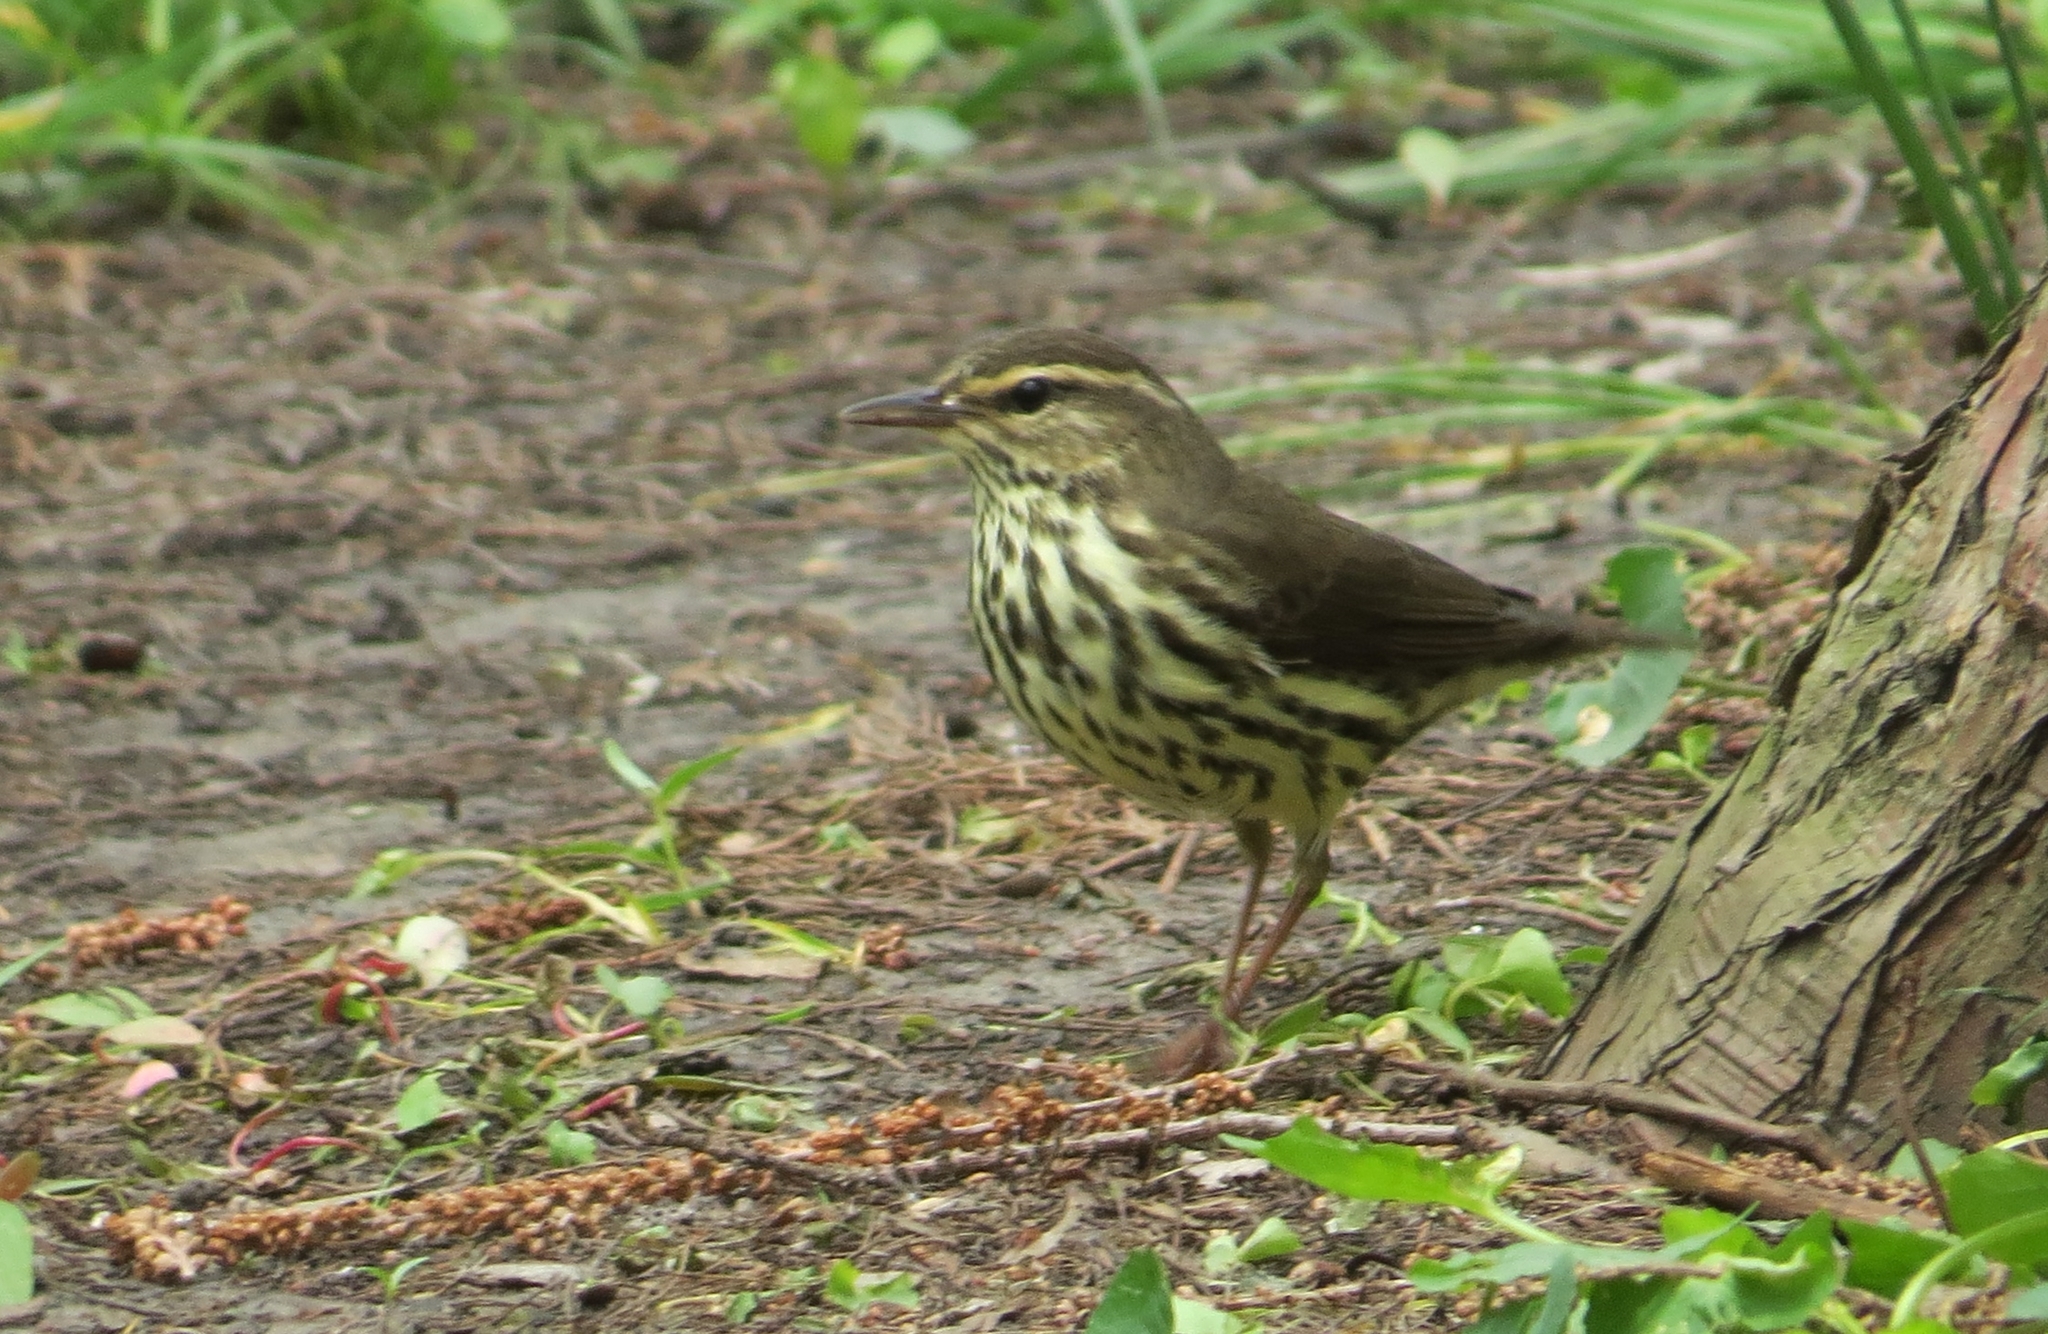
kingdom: Animalia
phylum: Chordata
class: Aves
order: Passeriformes
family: Parulidae
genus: Parkesia
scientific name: Parkesia noveboracensis
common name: Northern waterthrush
